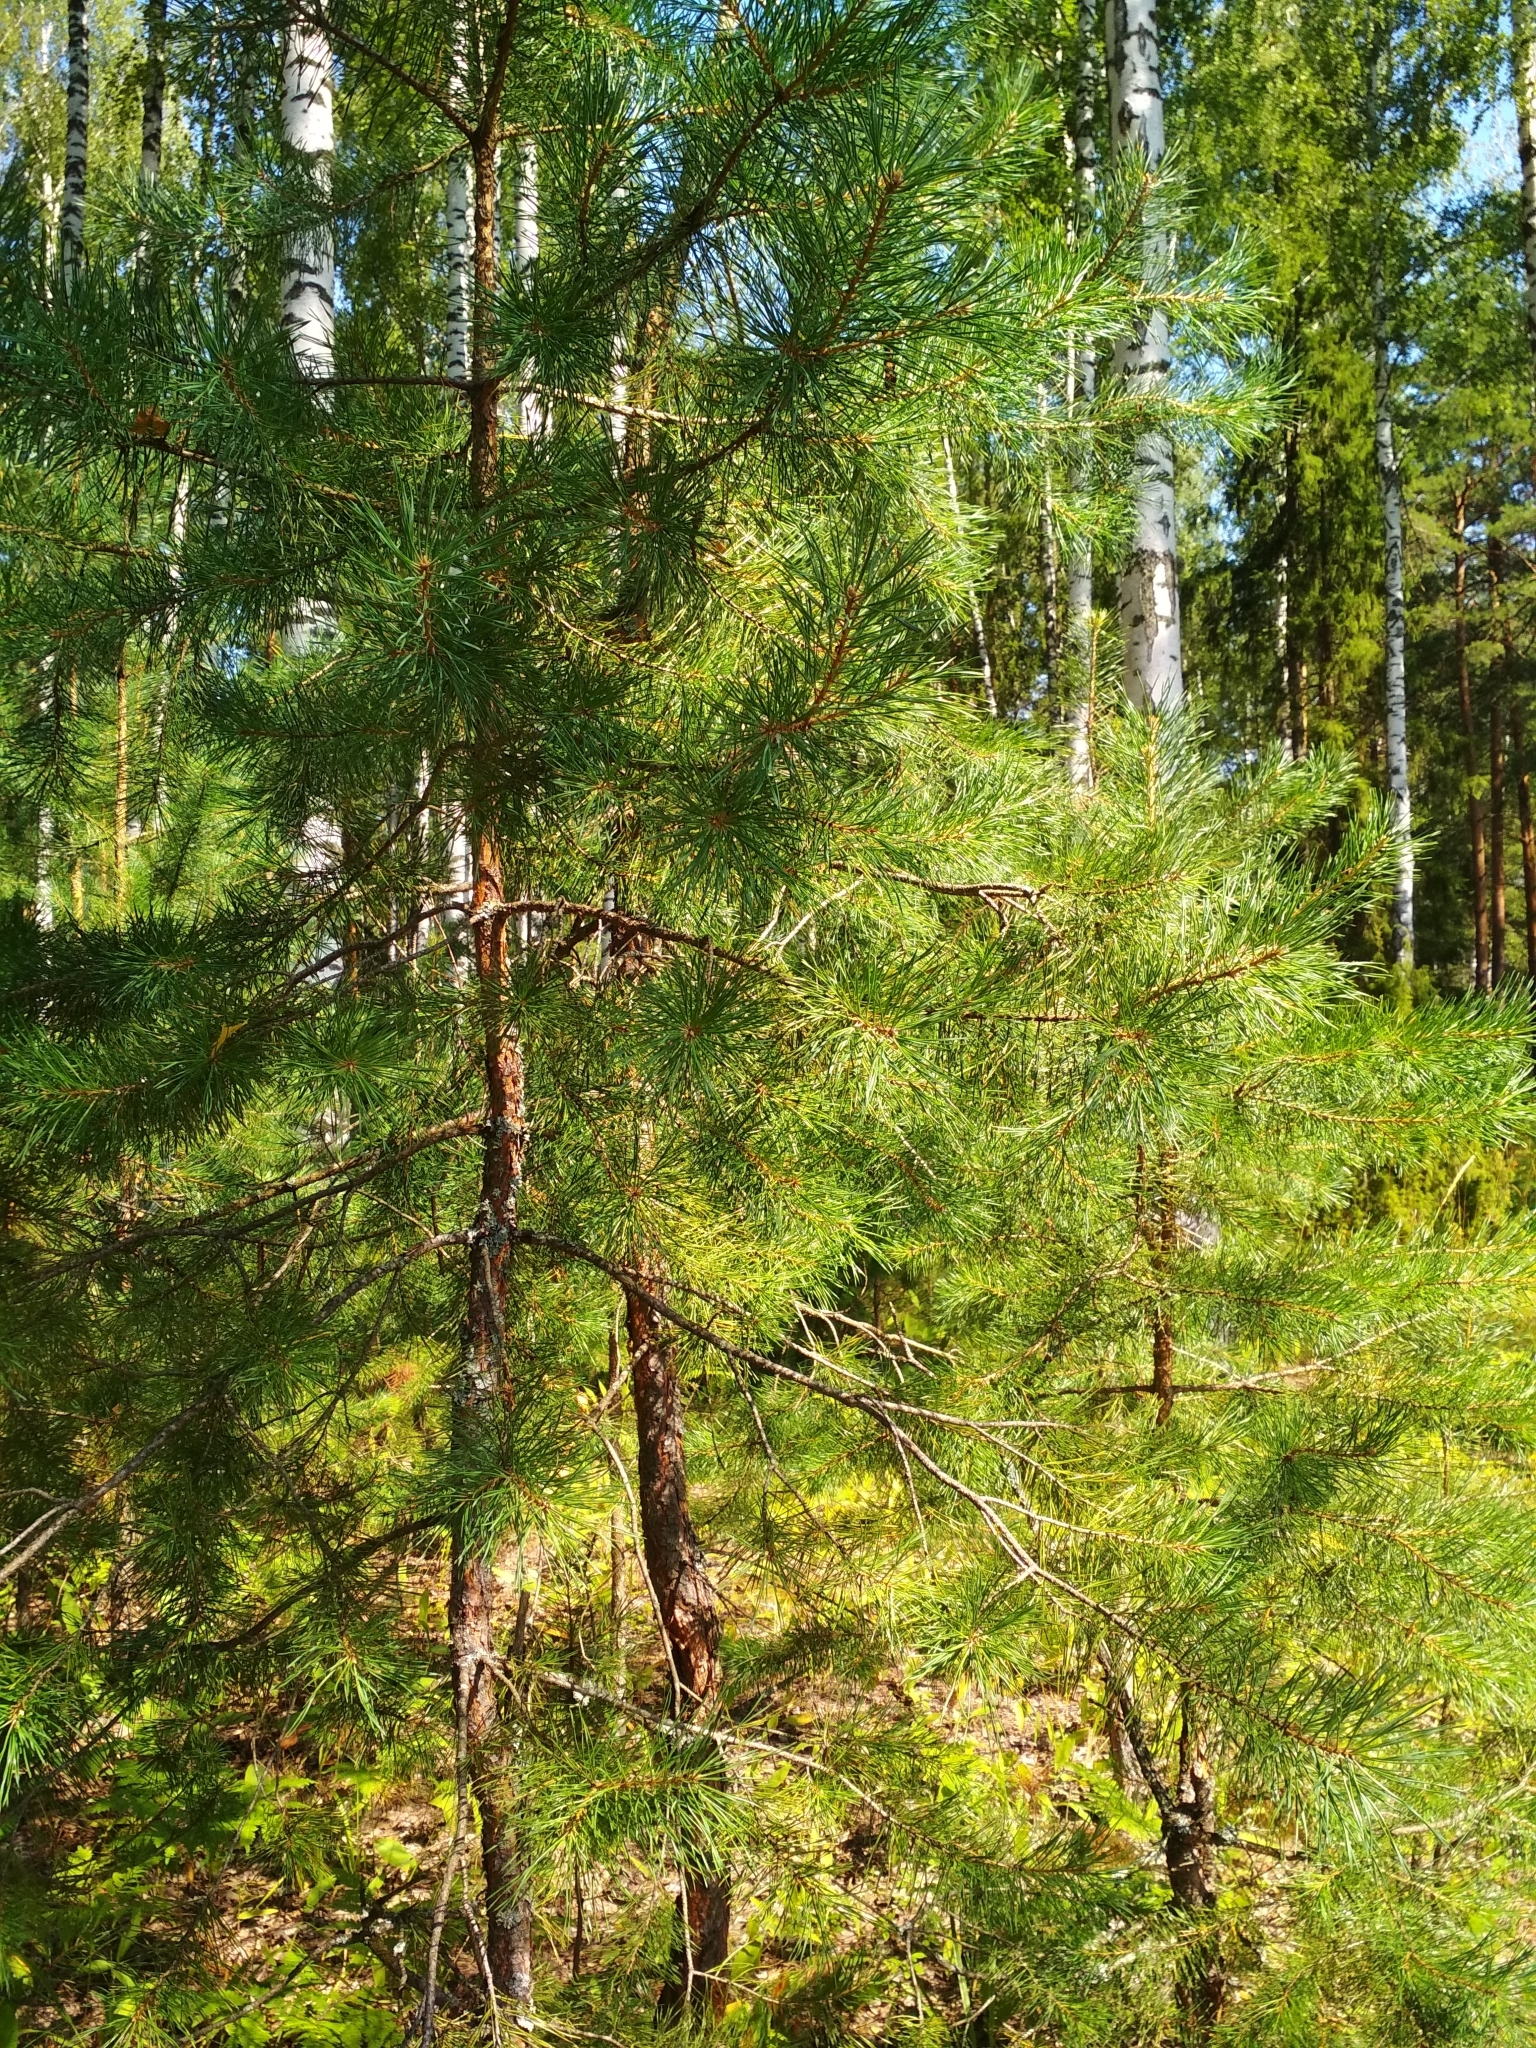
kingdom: Plantae
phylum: Tracheophyta
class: Pinopsida
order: Pinales
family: Pinaceae
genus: Pinus
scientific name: Pinus sylvestris
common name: Scots pine
